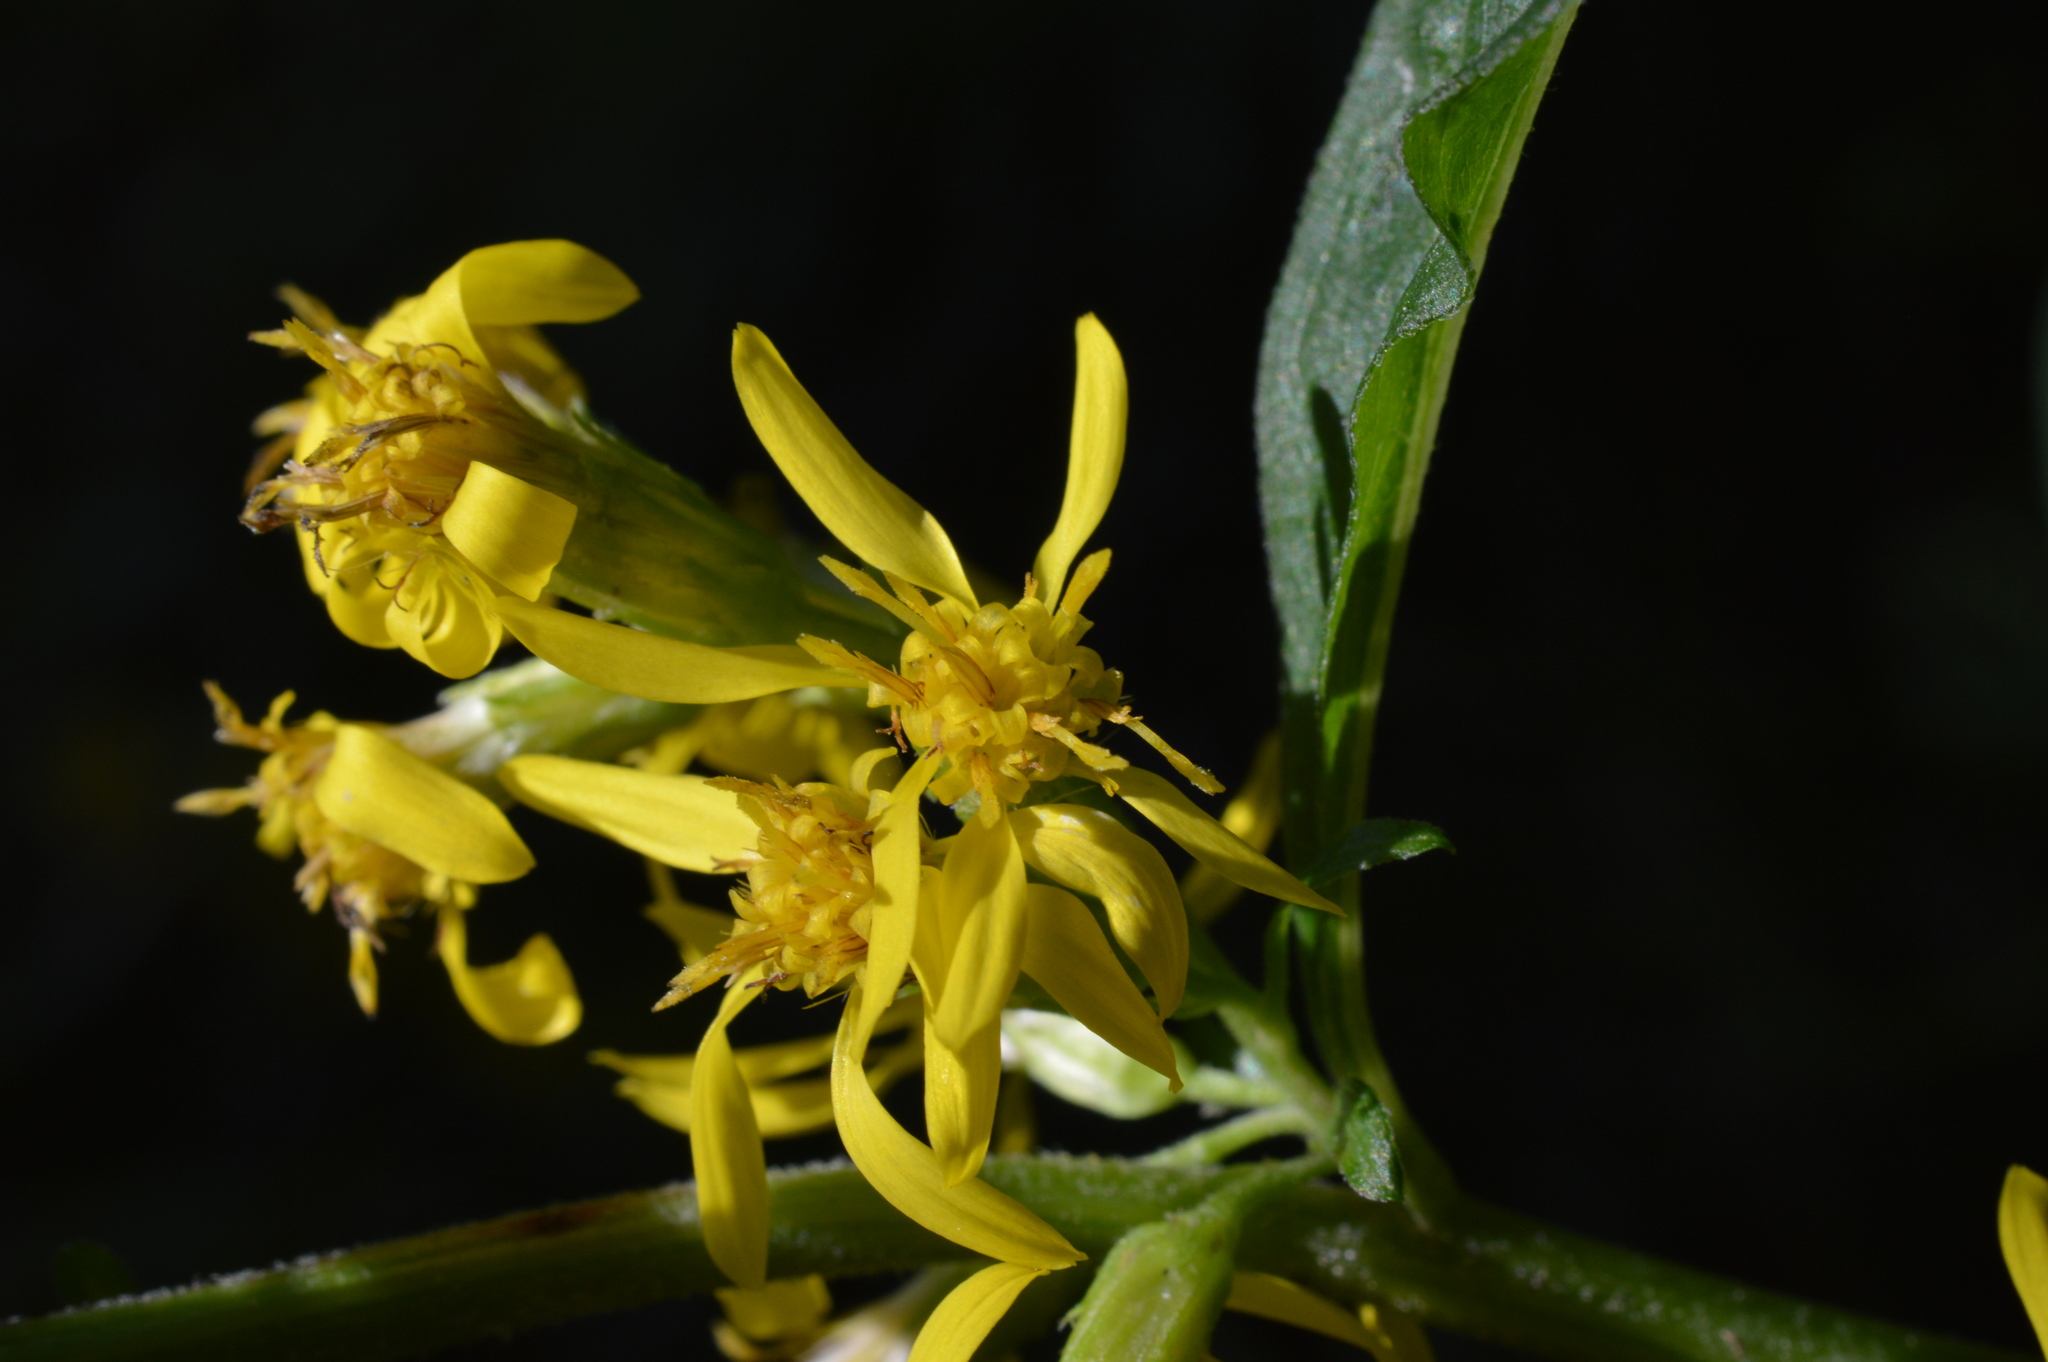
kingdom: Plantae
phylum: Tracheophyta
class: Magnoliopsida
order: Asterales
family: Asteraceae
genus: Solidago
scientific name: Solidago virgaurea
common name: Goldenrod
